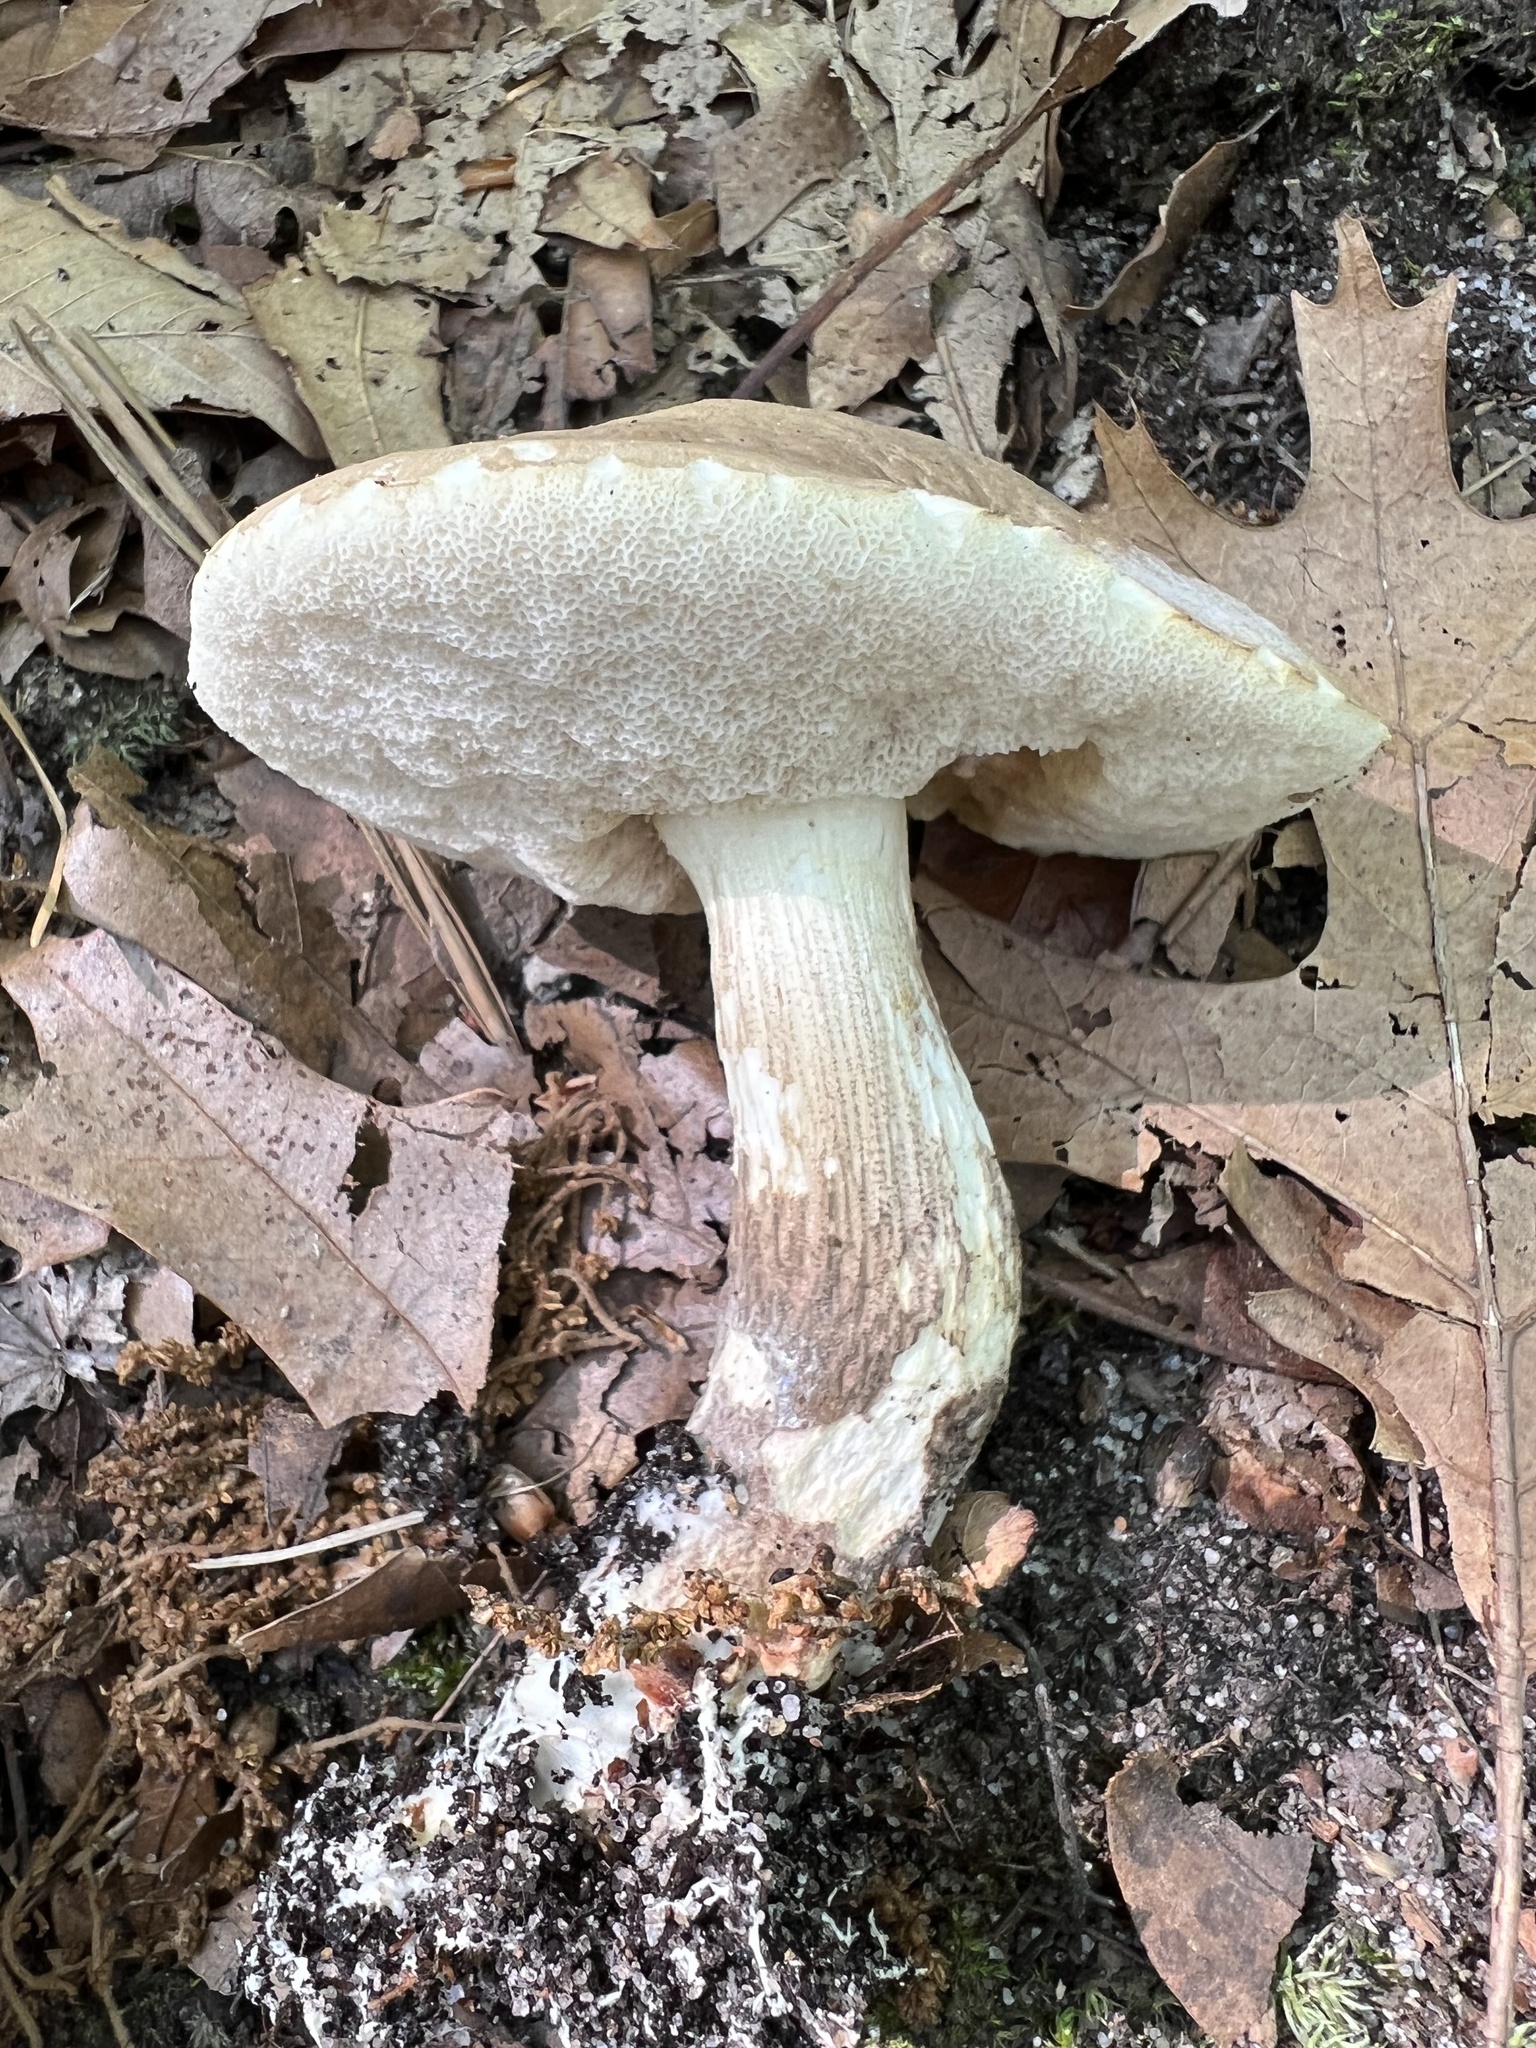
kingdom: Fungi
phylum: Basidiomycota
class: Agaricomycetes
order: Boletales
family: Boletaceae
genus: Leccinellum
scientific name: Leccinellum albellum
